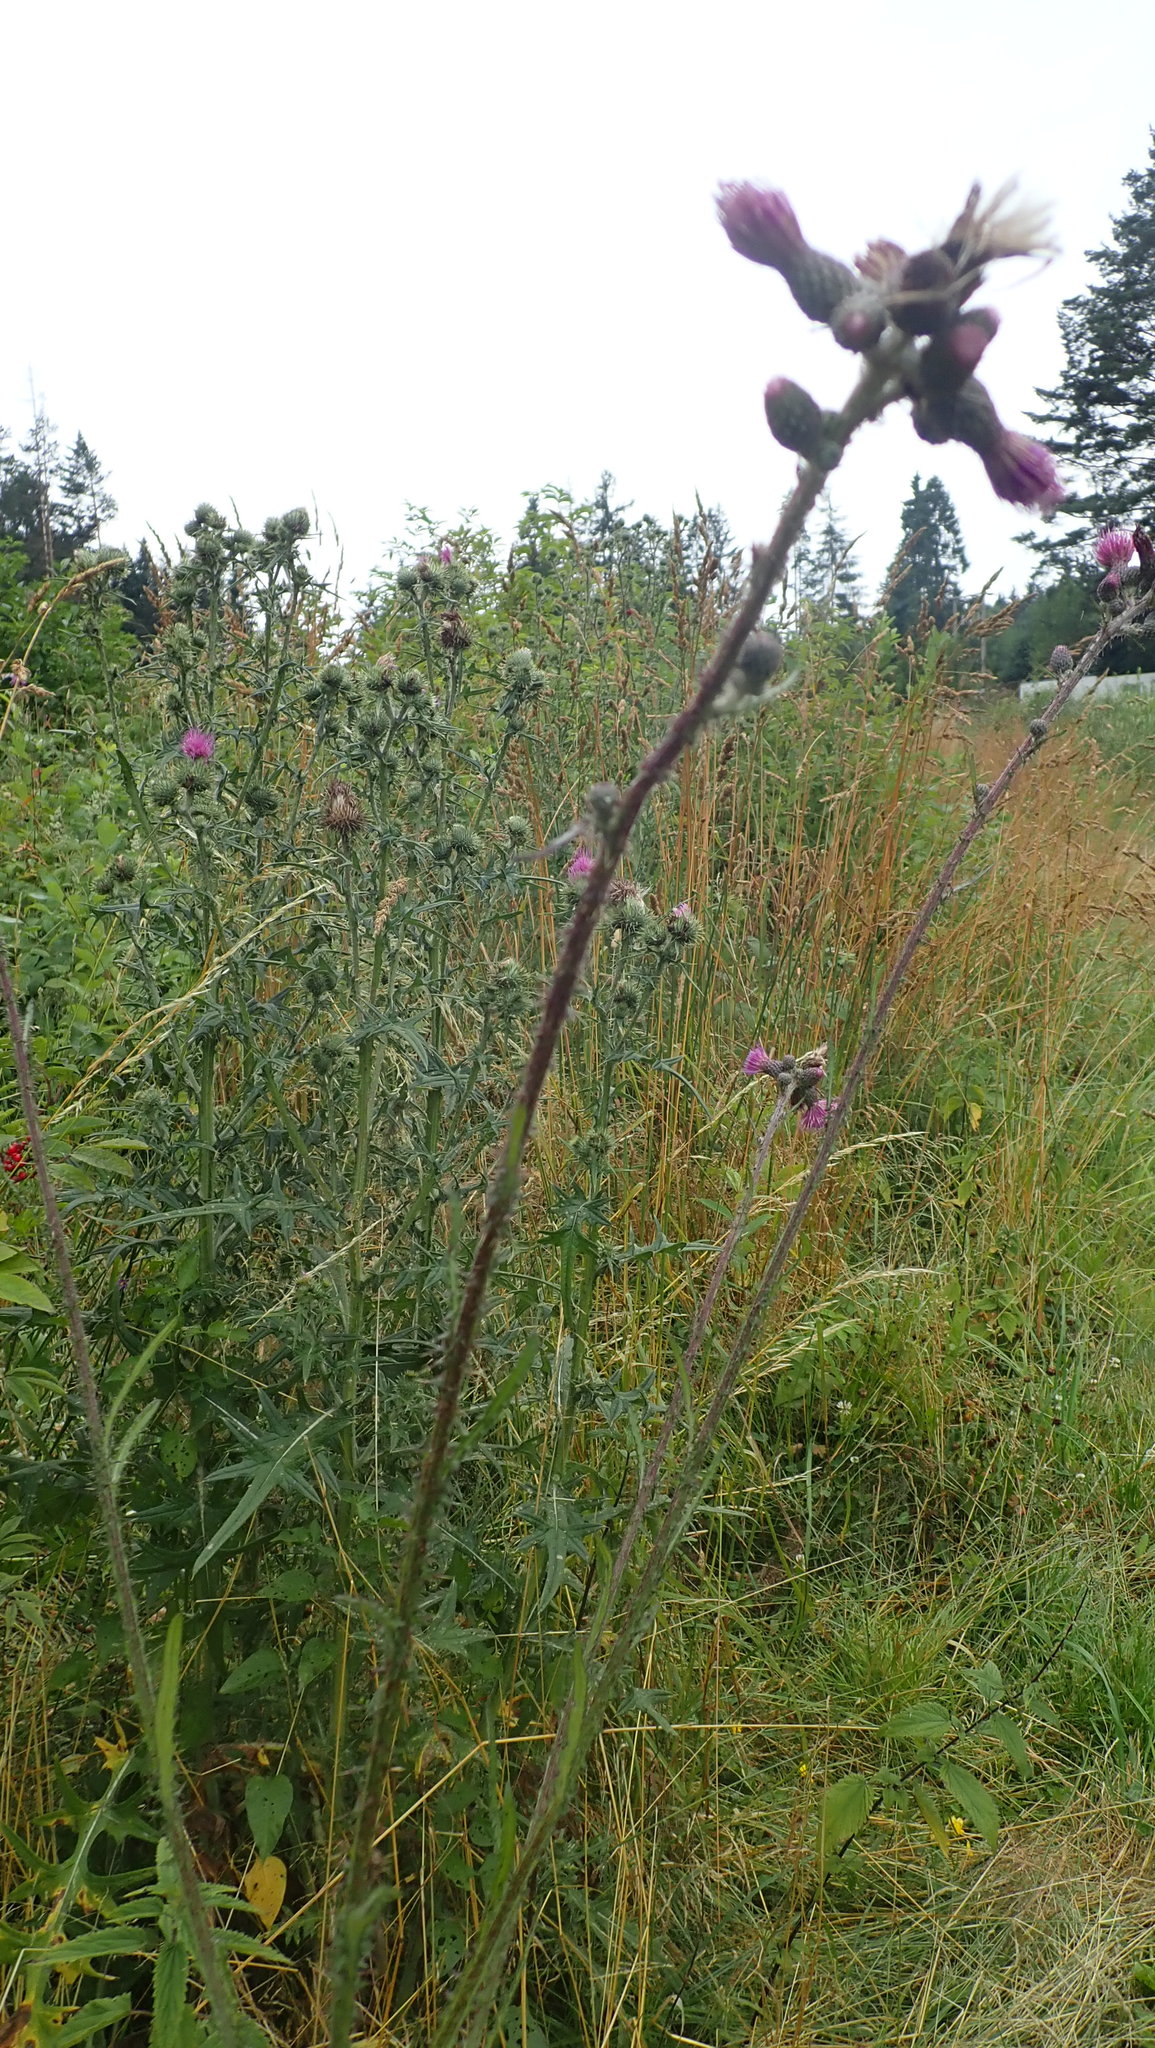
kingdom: Plantae
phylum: Tracheophyta
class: Magnoliopsida
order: Asterales
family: Asteraceae
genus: Cirsium
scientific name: Cirsium palustre
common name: Marsh thistle
